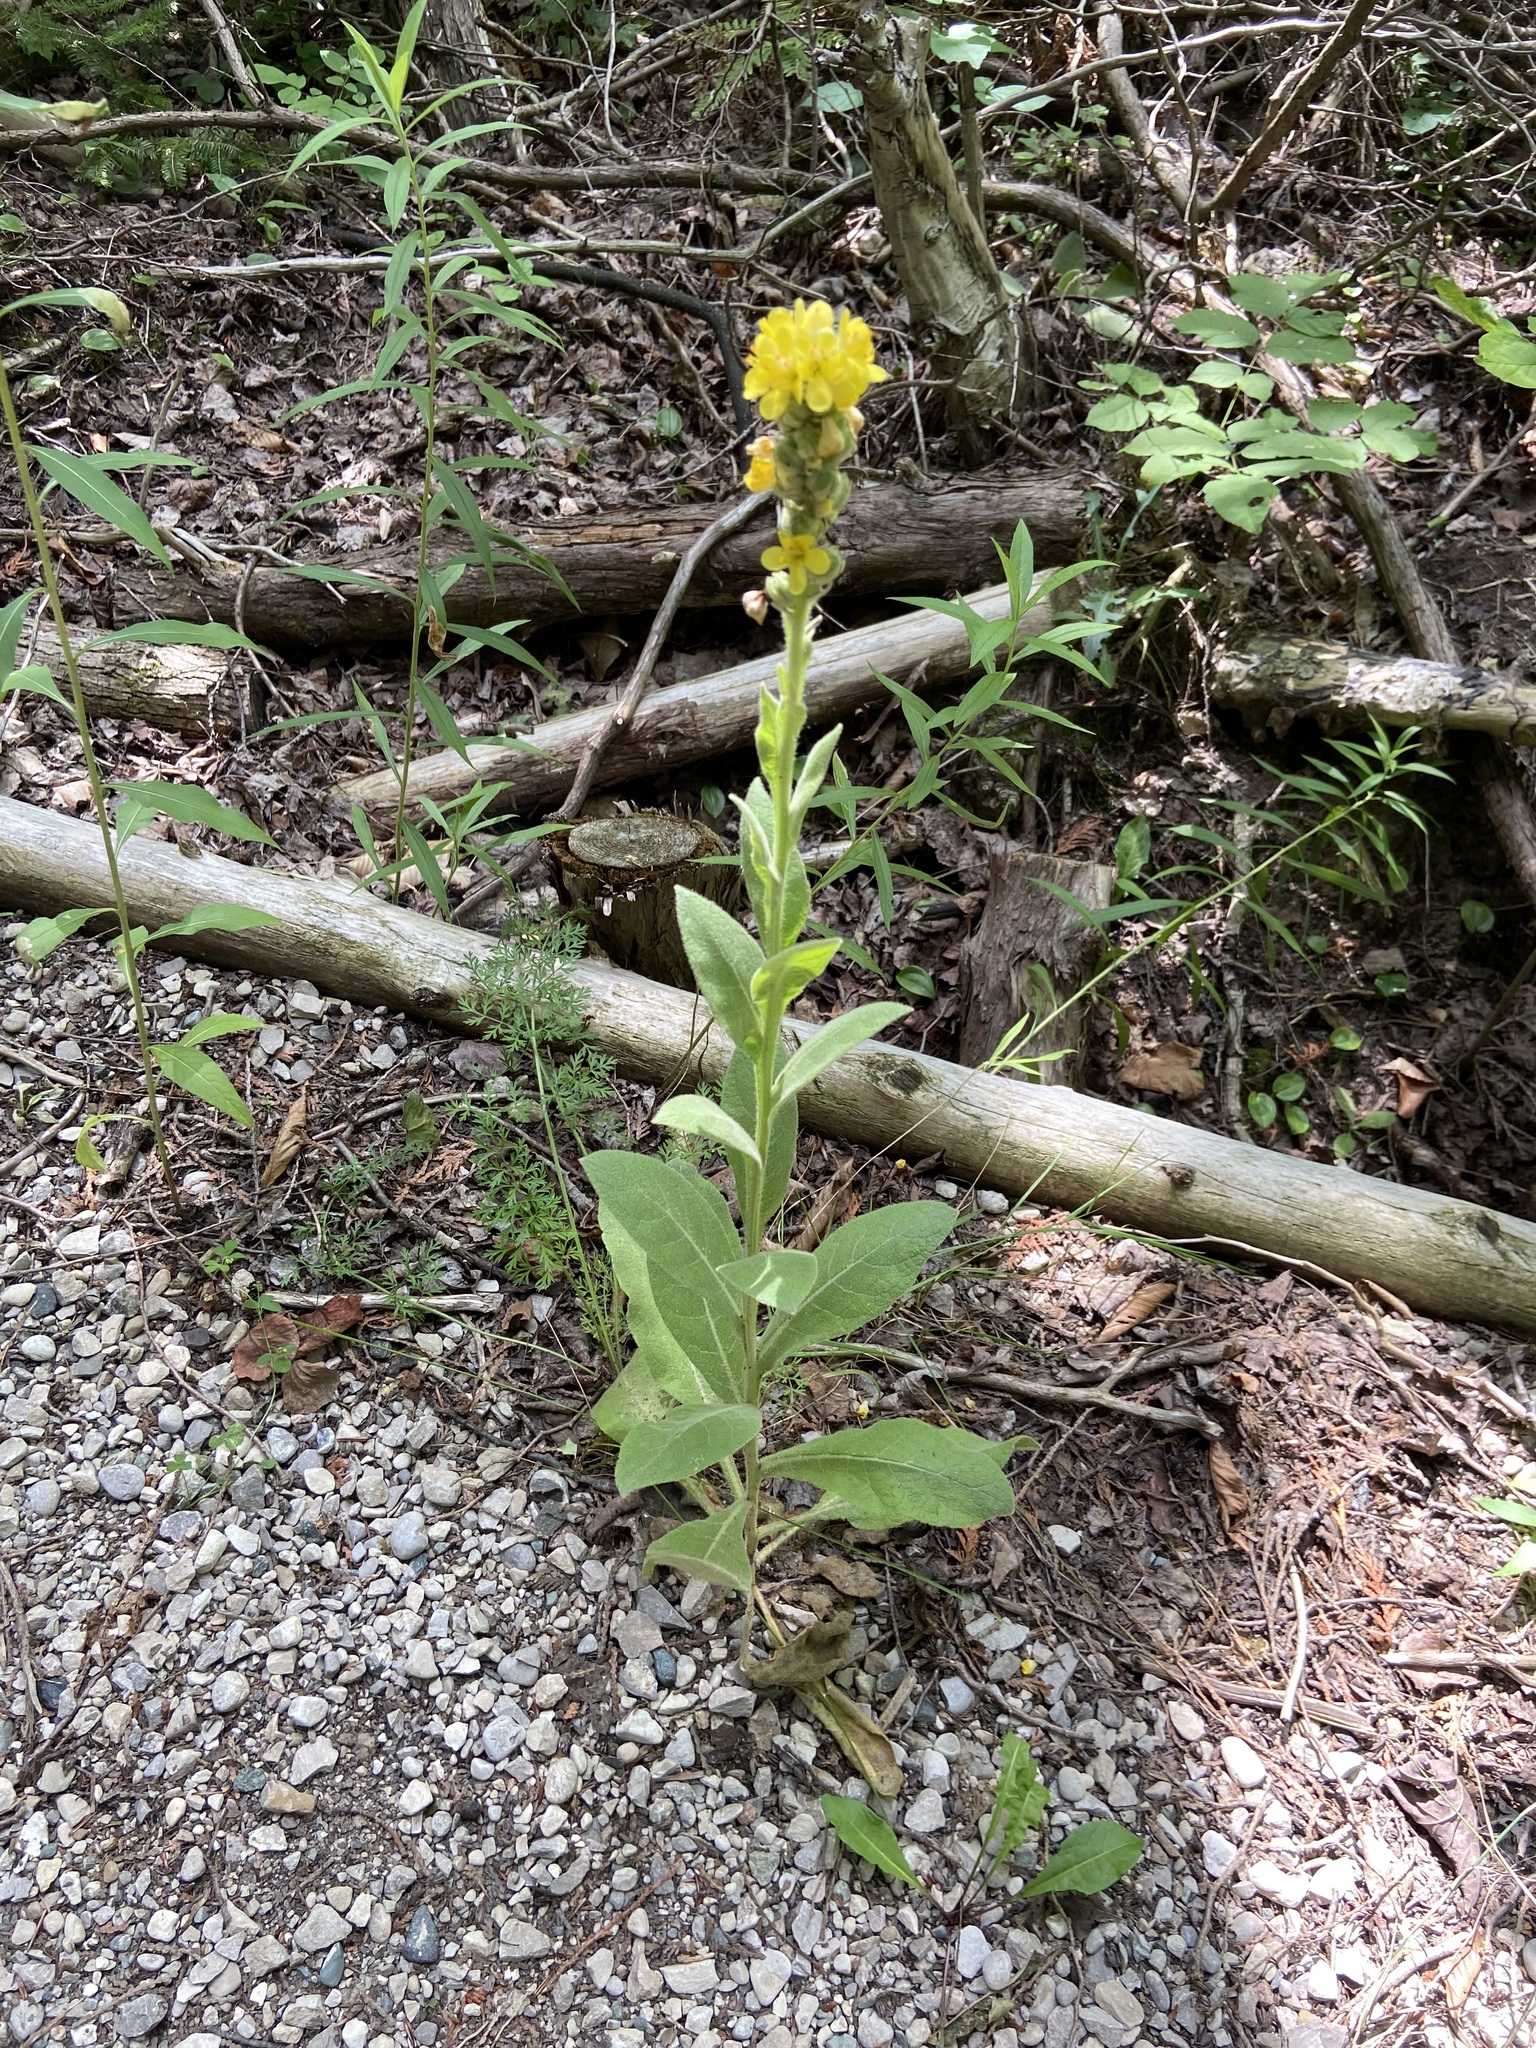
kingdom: Plantae
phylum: Tracheophyta
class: Magnoliopsida
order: Lamiales
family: Scrophulariaceae
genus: Verbascum
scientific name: Verbascum thapsus
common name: Common mullein
